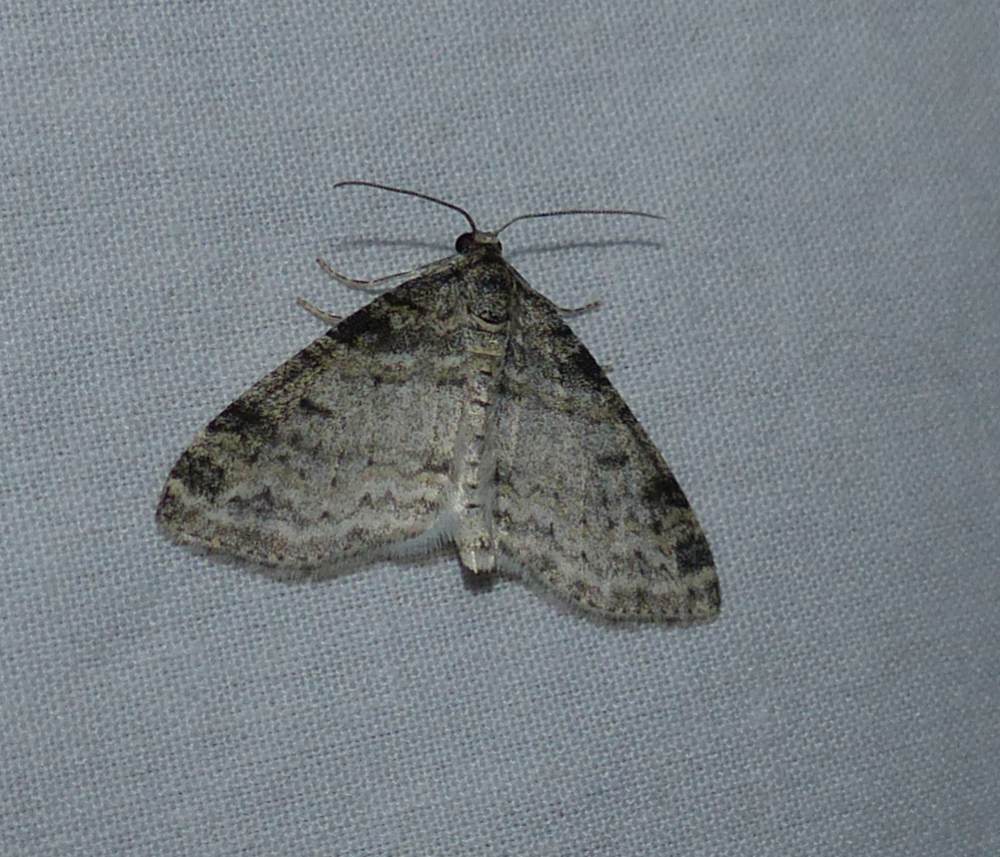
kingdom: Animalia
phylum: Arthropoda
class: Insecta
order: Lepidoptera
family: Geometridae
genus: Lobophora
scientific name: Lobophora nivigerata
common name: Powdered bigwing
